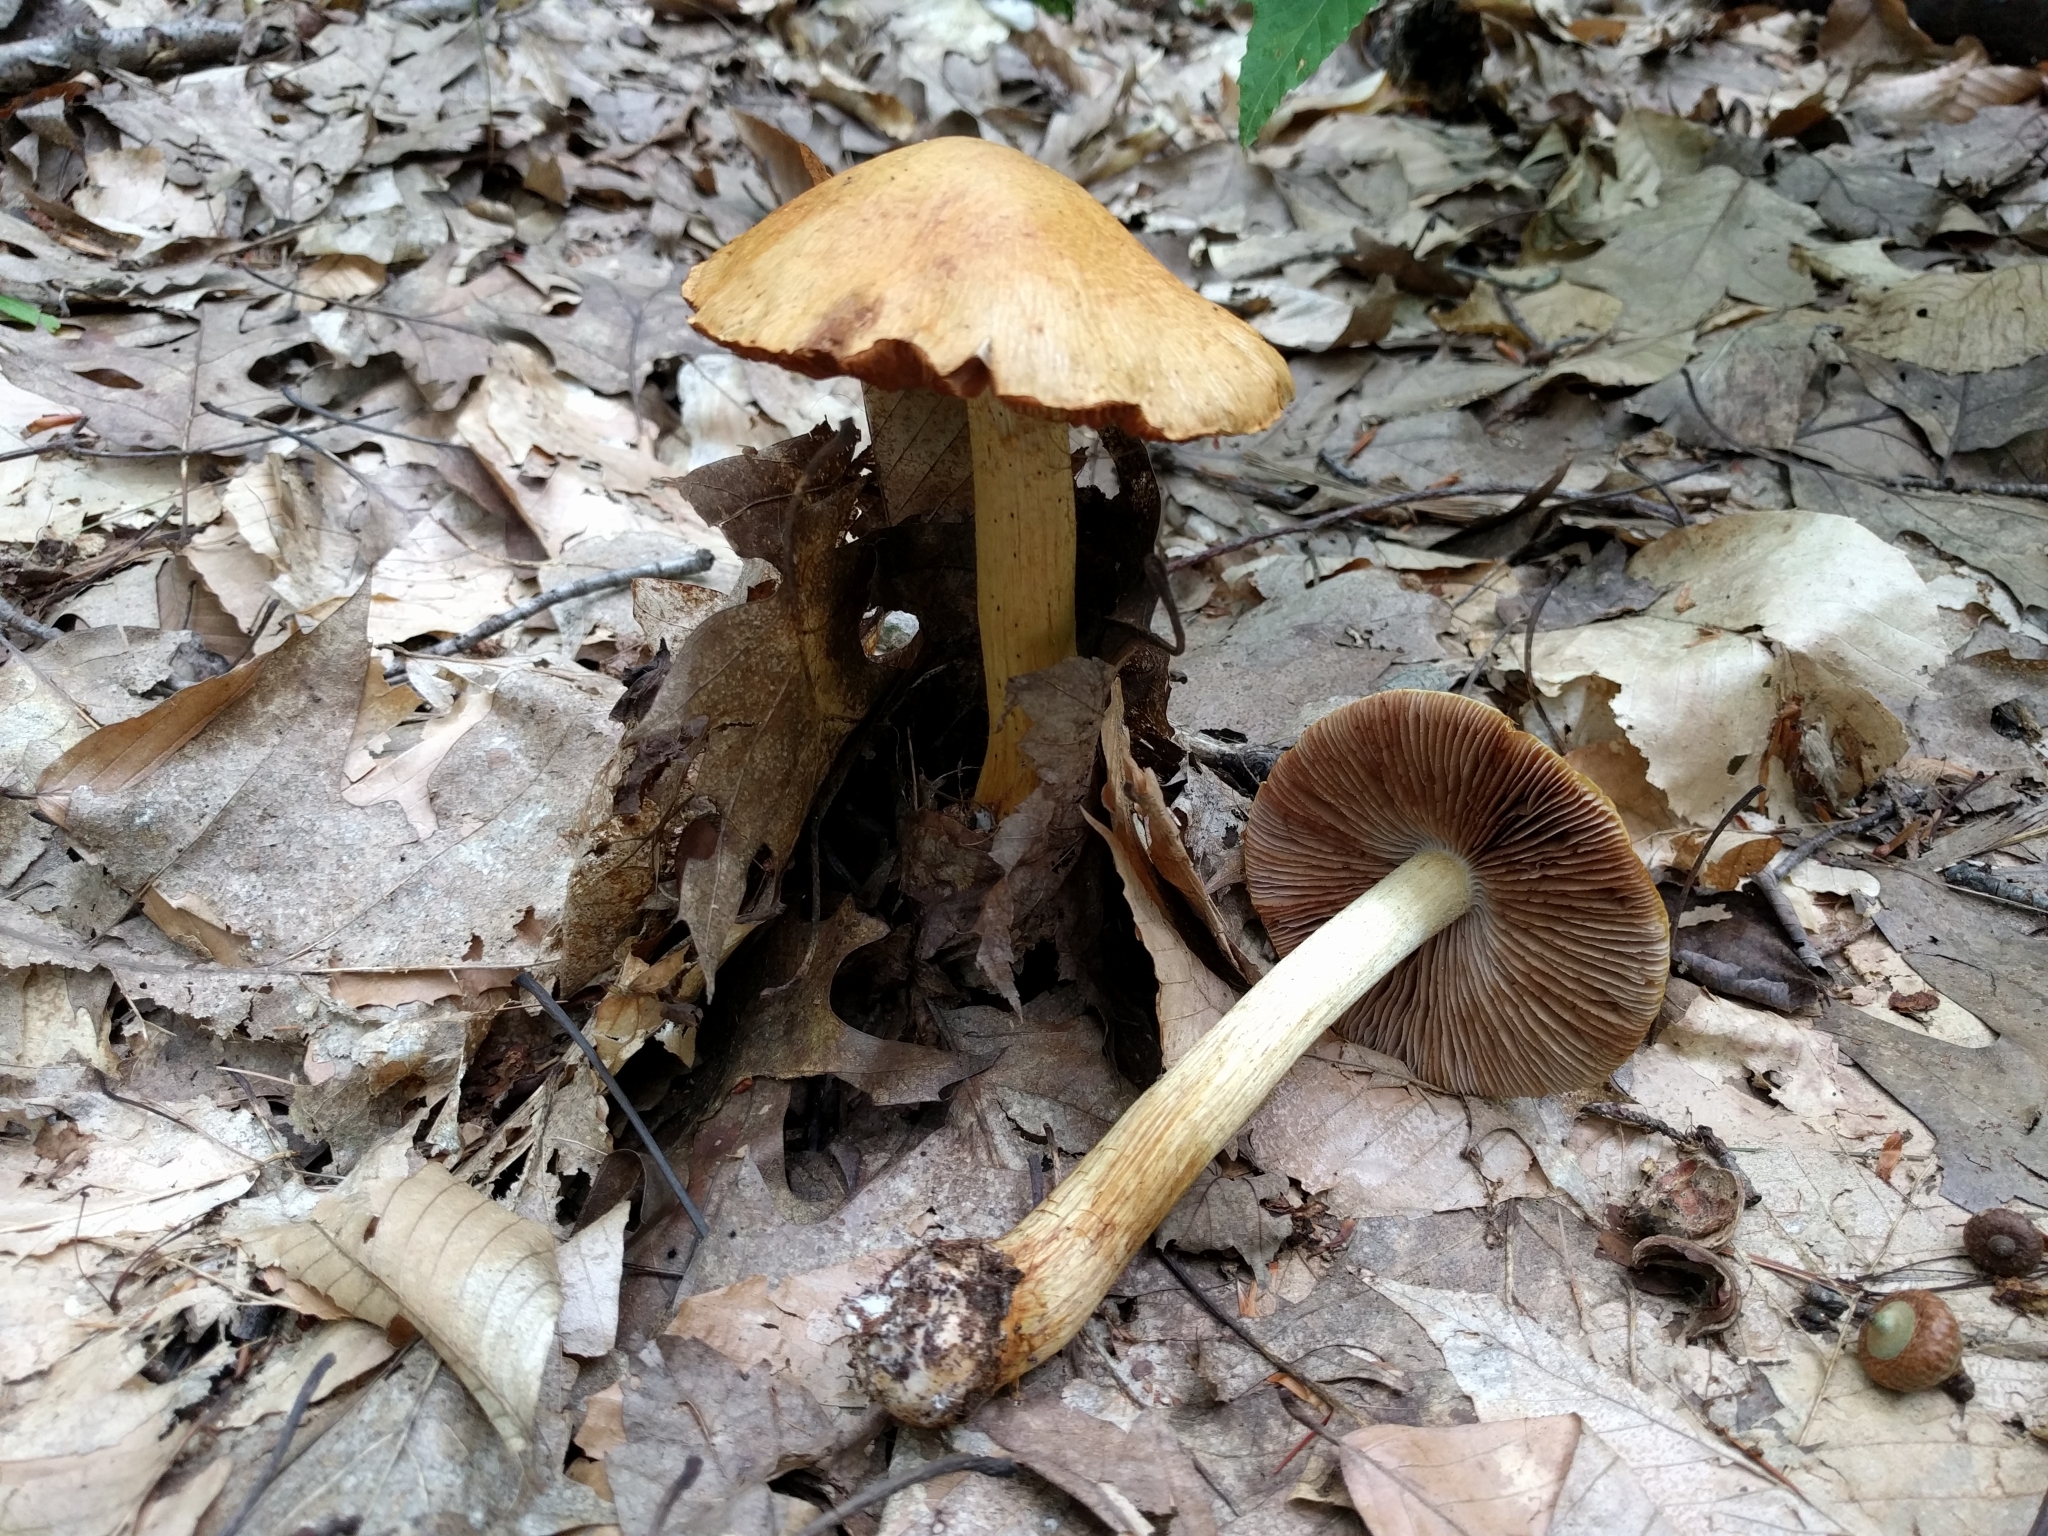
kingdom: Fungi
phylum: Basidiomycota
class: Agaricomycetes
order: Agaricales
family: Cortinariaceae
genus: Cortinarius
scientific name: Cortinarius corrugatus
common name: Wrinkled cortinarius
